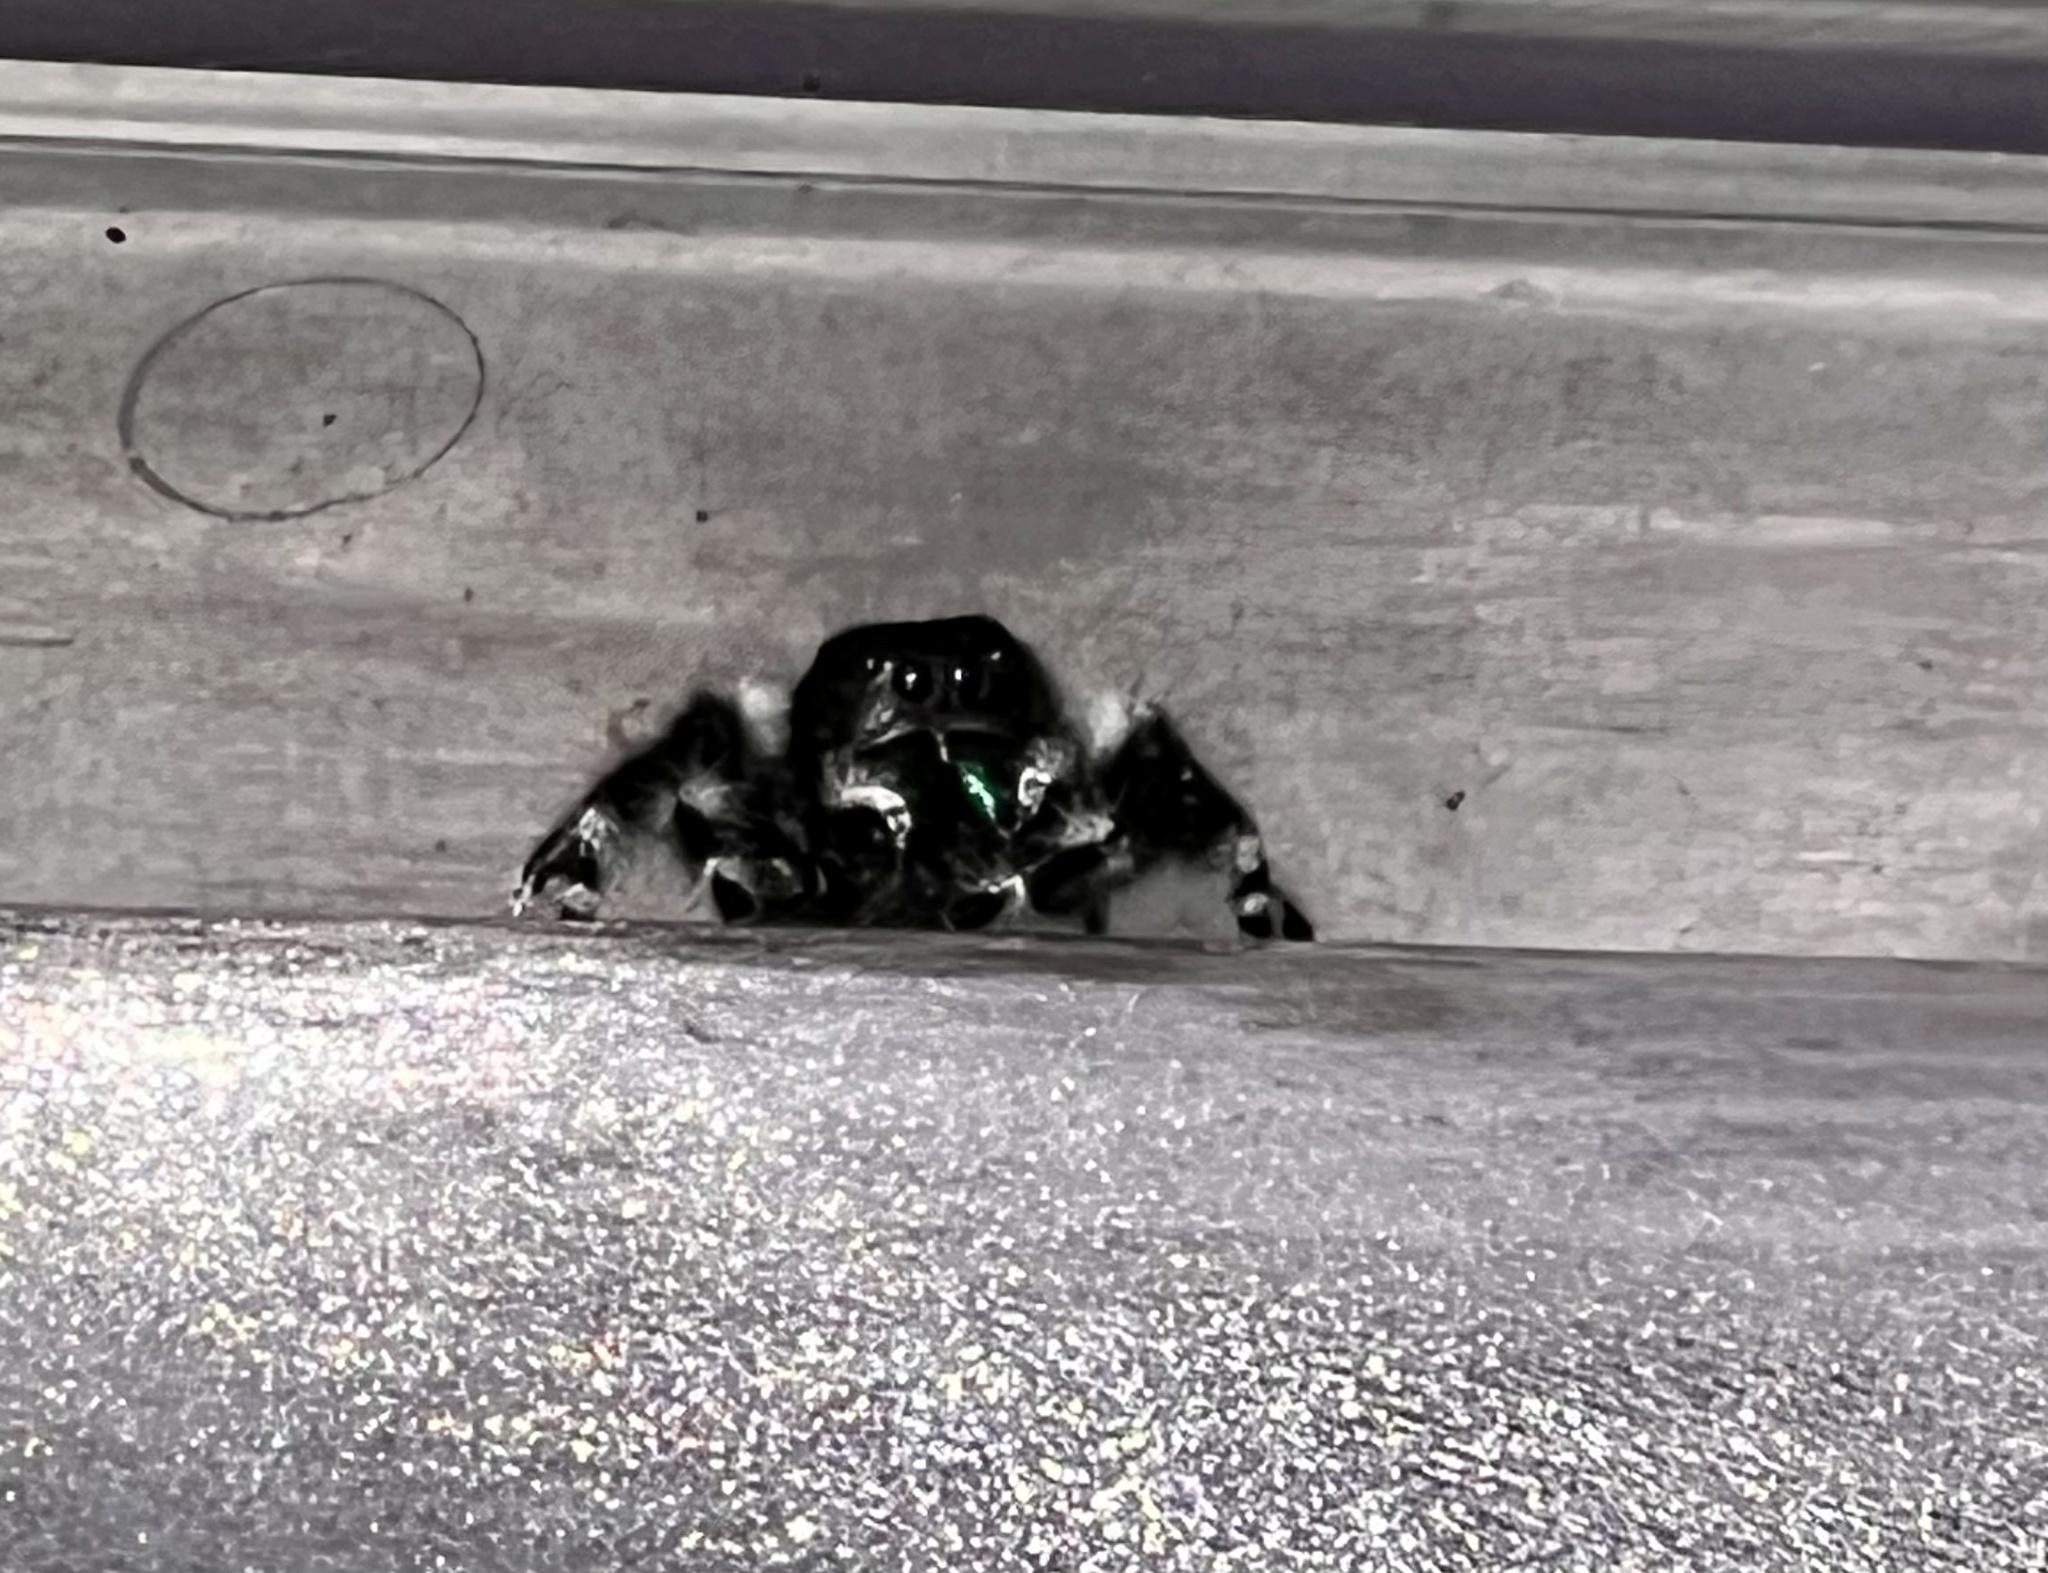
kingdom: Animalia
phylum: Arthropoda
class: Arachnida
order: Araneae
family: Salticidae
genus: Phidippus
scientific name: Phidippus audax
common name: Bold jumper
